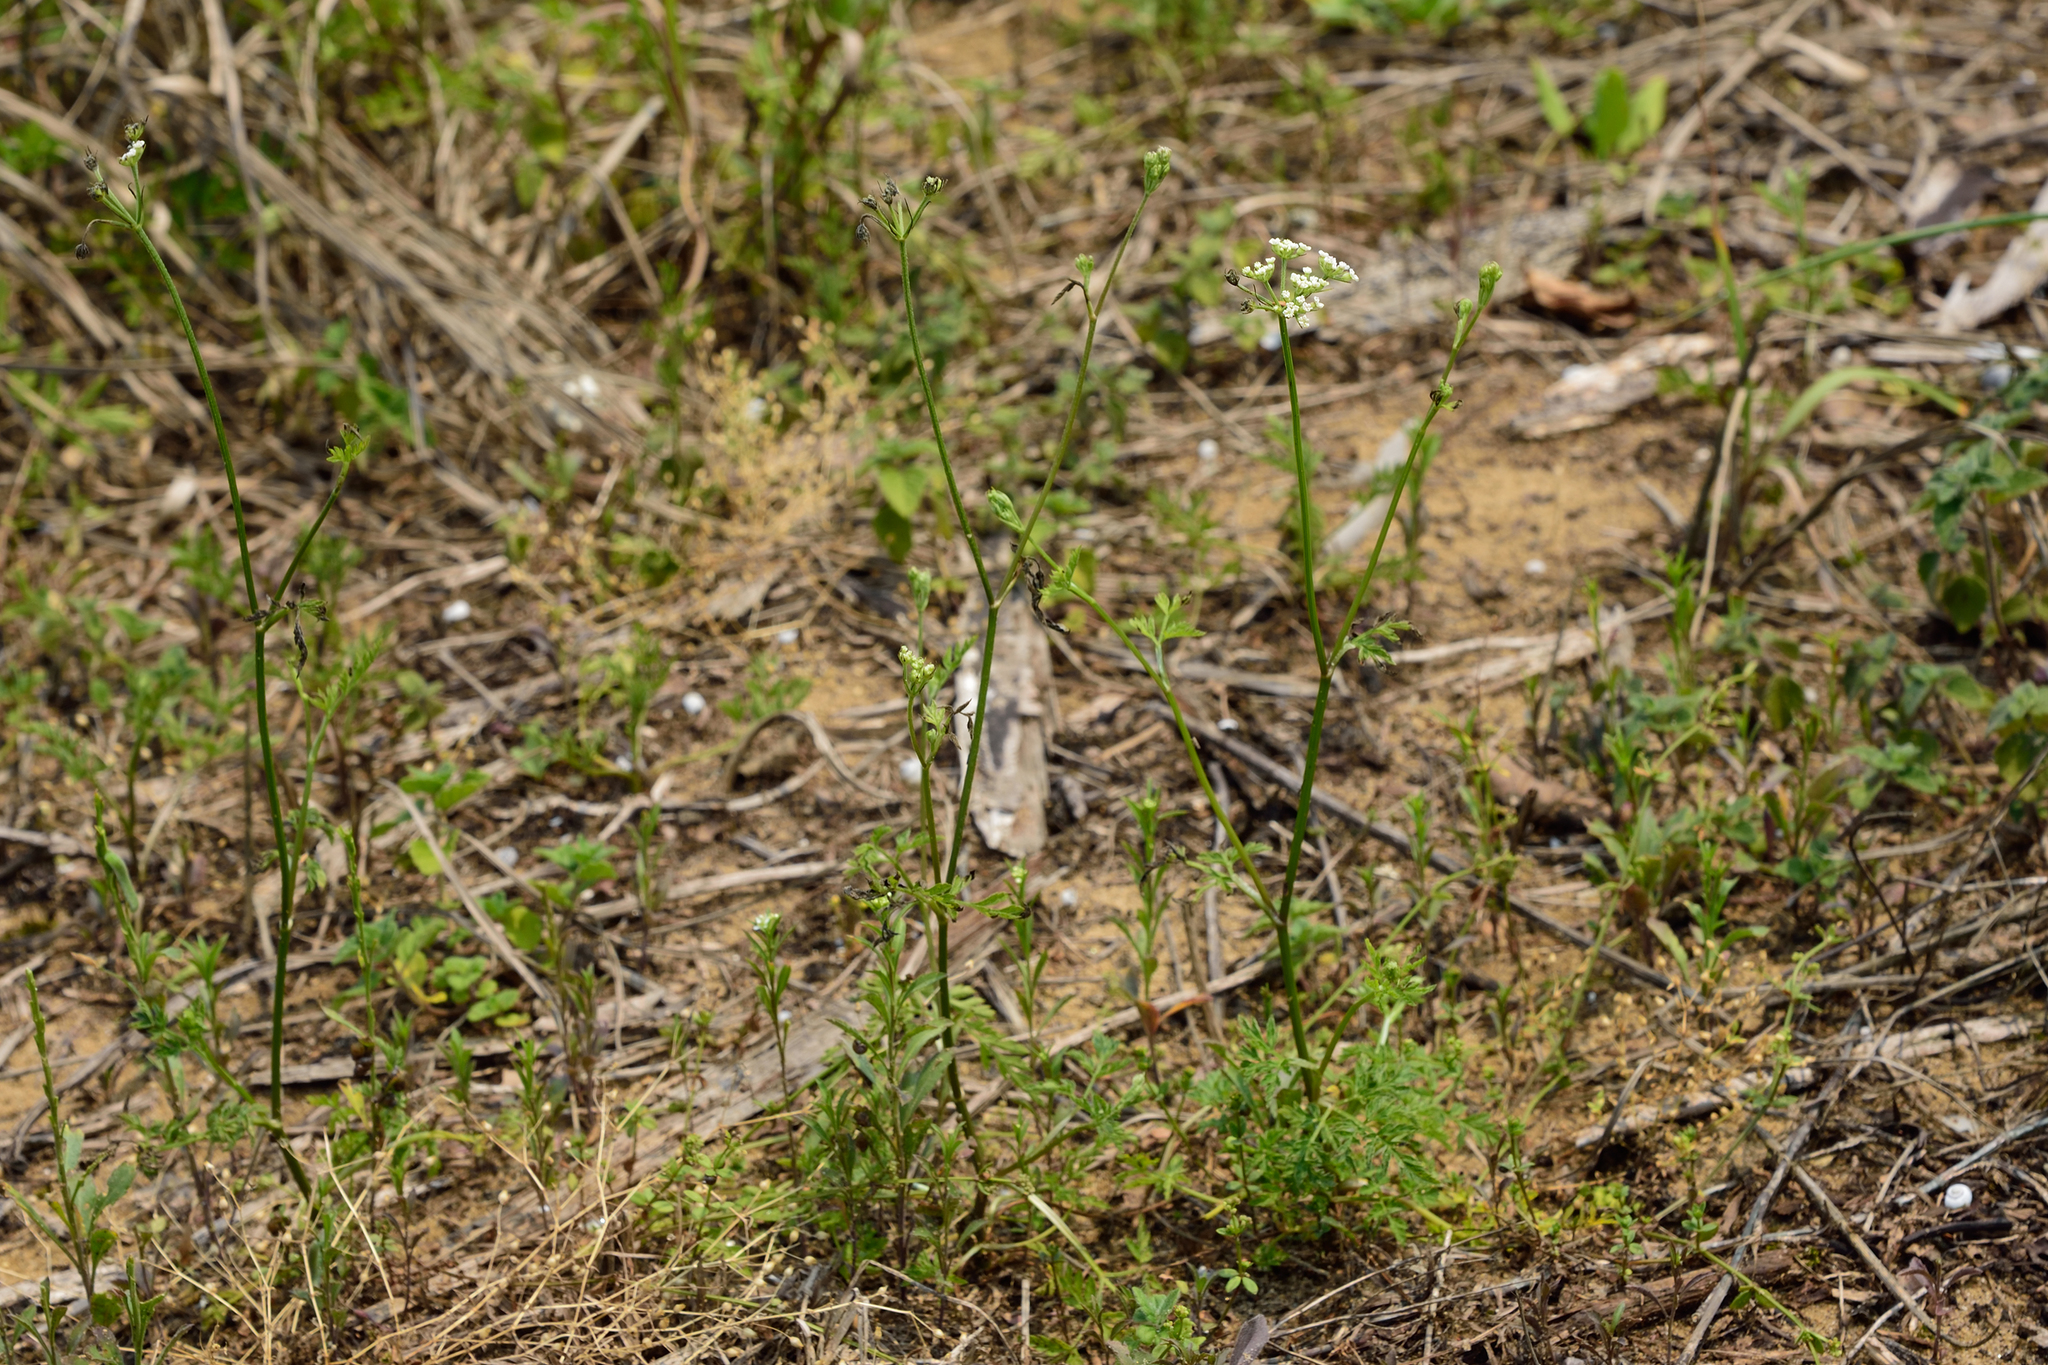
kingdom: Plantae
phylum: Tracheophyta
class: Magnoliopsida
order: Apiales
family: Apiaceae
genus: Torilis
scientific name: Torilis japonica
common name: Upright hedge-parsley
